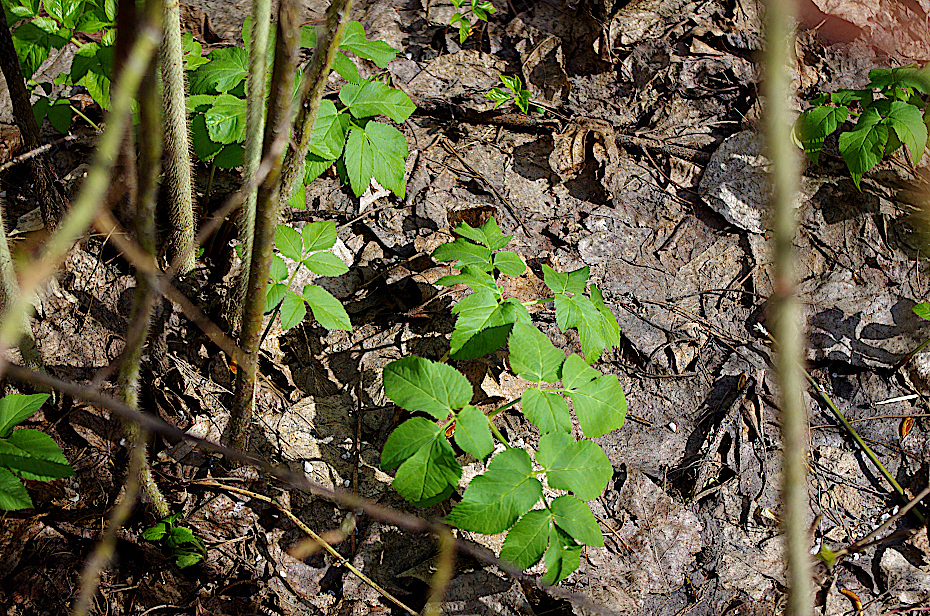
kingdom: Plantae
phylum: Tracheophyta
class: Magnoliopsida
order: Apiales
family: Apiaceae
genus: Aegopodium
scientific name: Aegopodium podagraria
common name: Ground-elder
